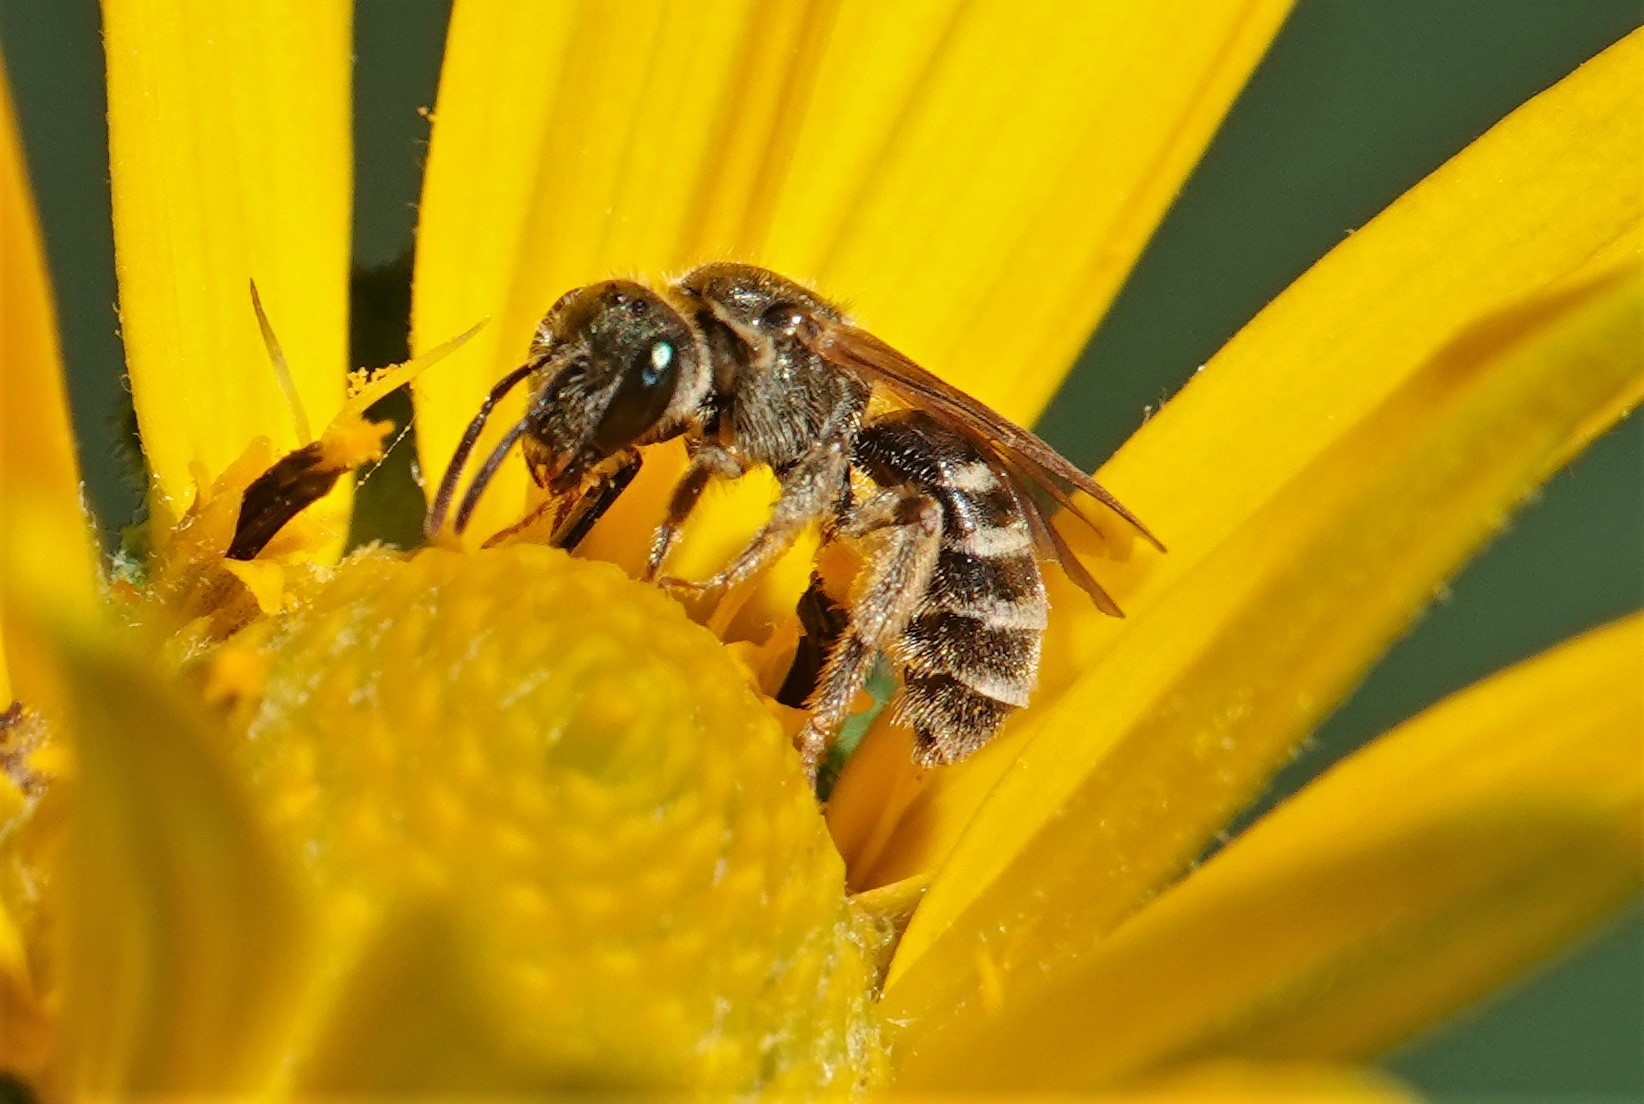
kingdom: Animalia
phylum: Arthropoda
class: Insecta
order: Hymenoptera
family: Halictidae
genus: Halictus
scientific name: Halictus confusus
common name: Southern bronze furrow bee
